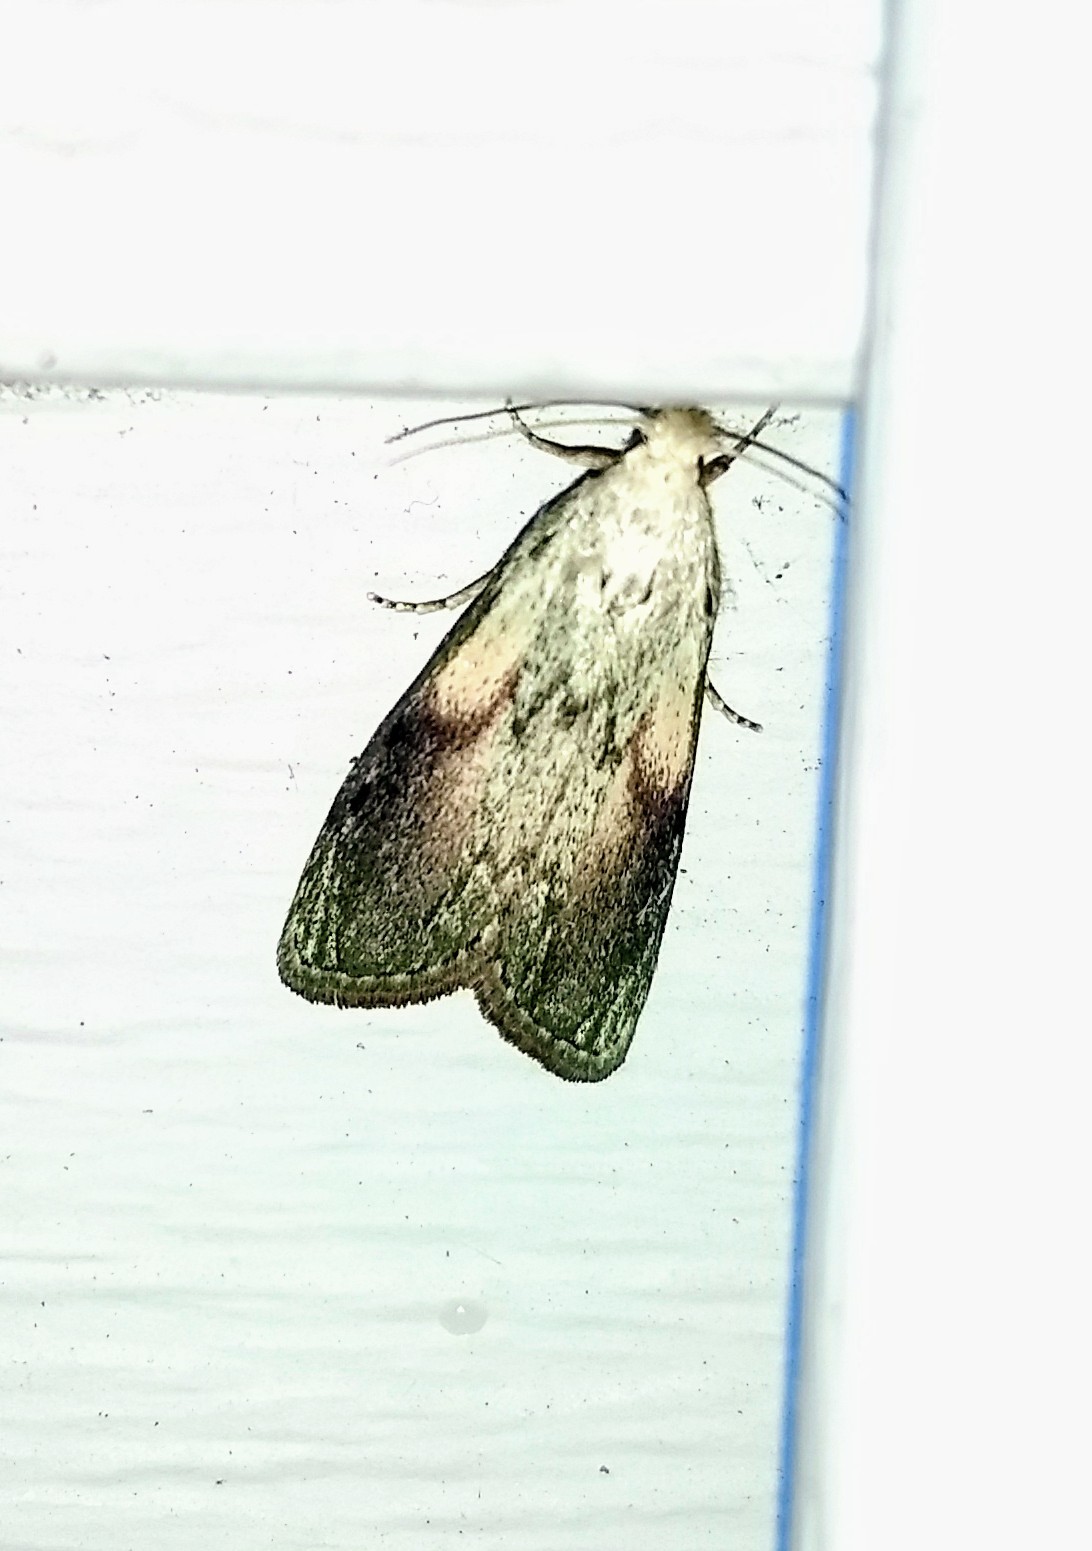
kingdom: Animalia
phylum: Arthropoda
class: Insecta
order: Lepidoptera
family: Pyralidae
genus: Aphomia
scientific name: Aphomia sociella
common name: Bee moth
